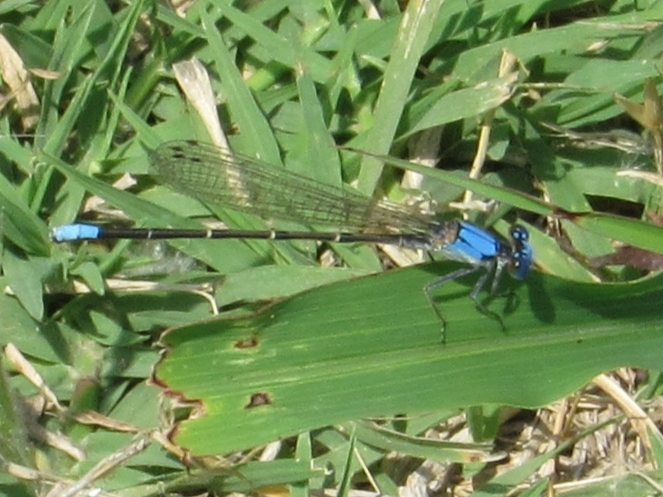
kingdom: Animalia
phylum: Arthropoda
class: Insecta
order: Odonata
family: Coenagrionidae
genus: Argia
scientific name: Argia apicalis
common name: Blue-fronted dancer
